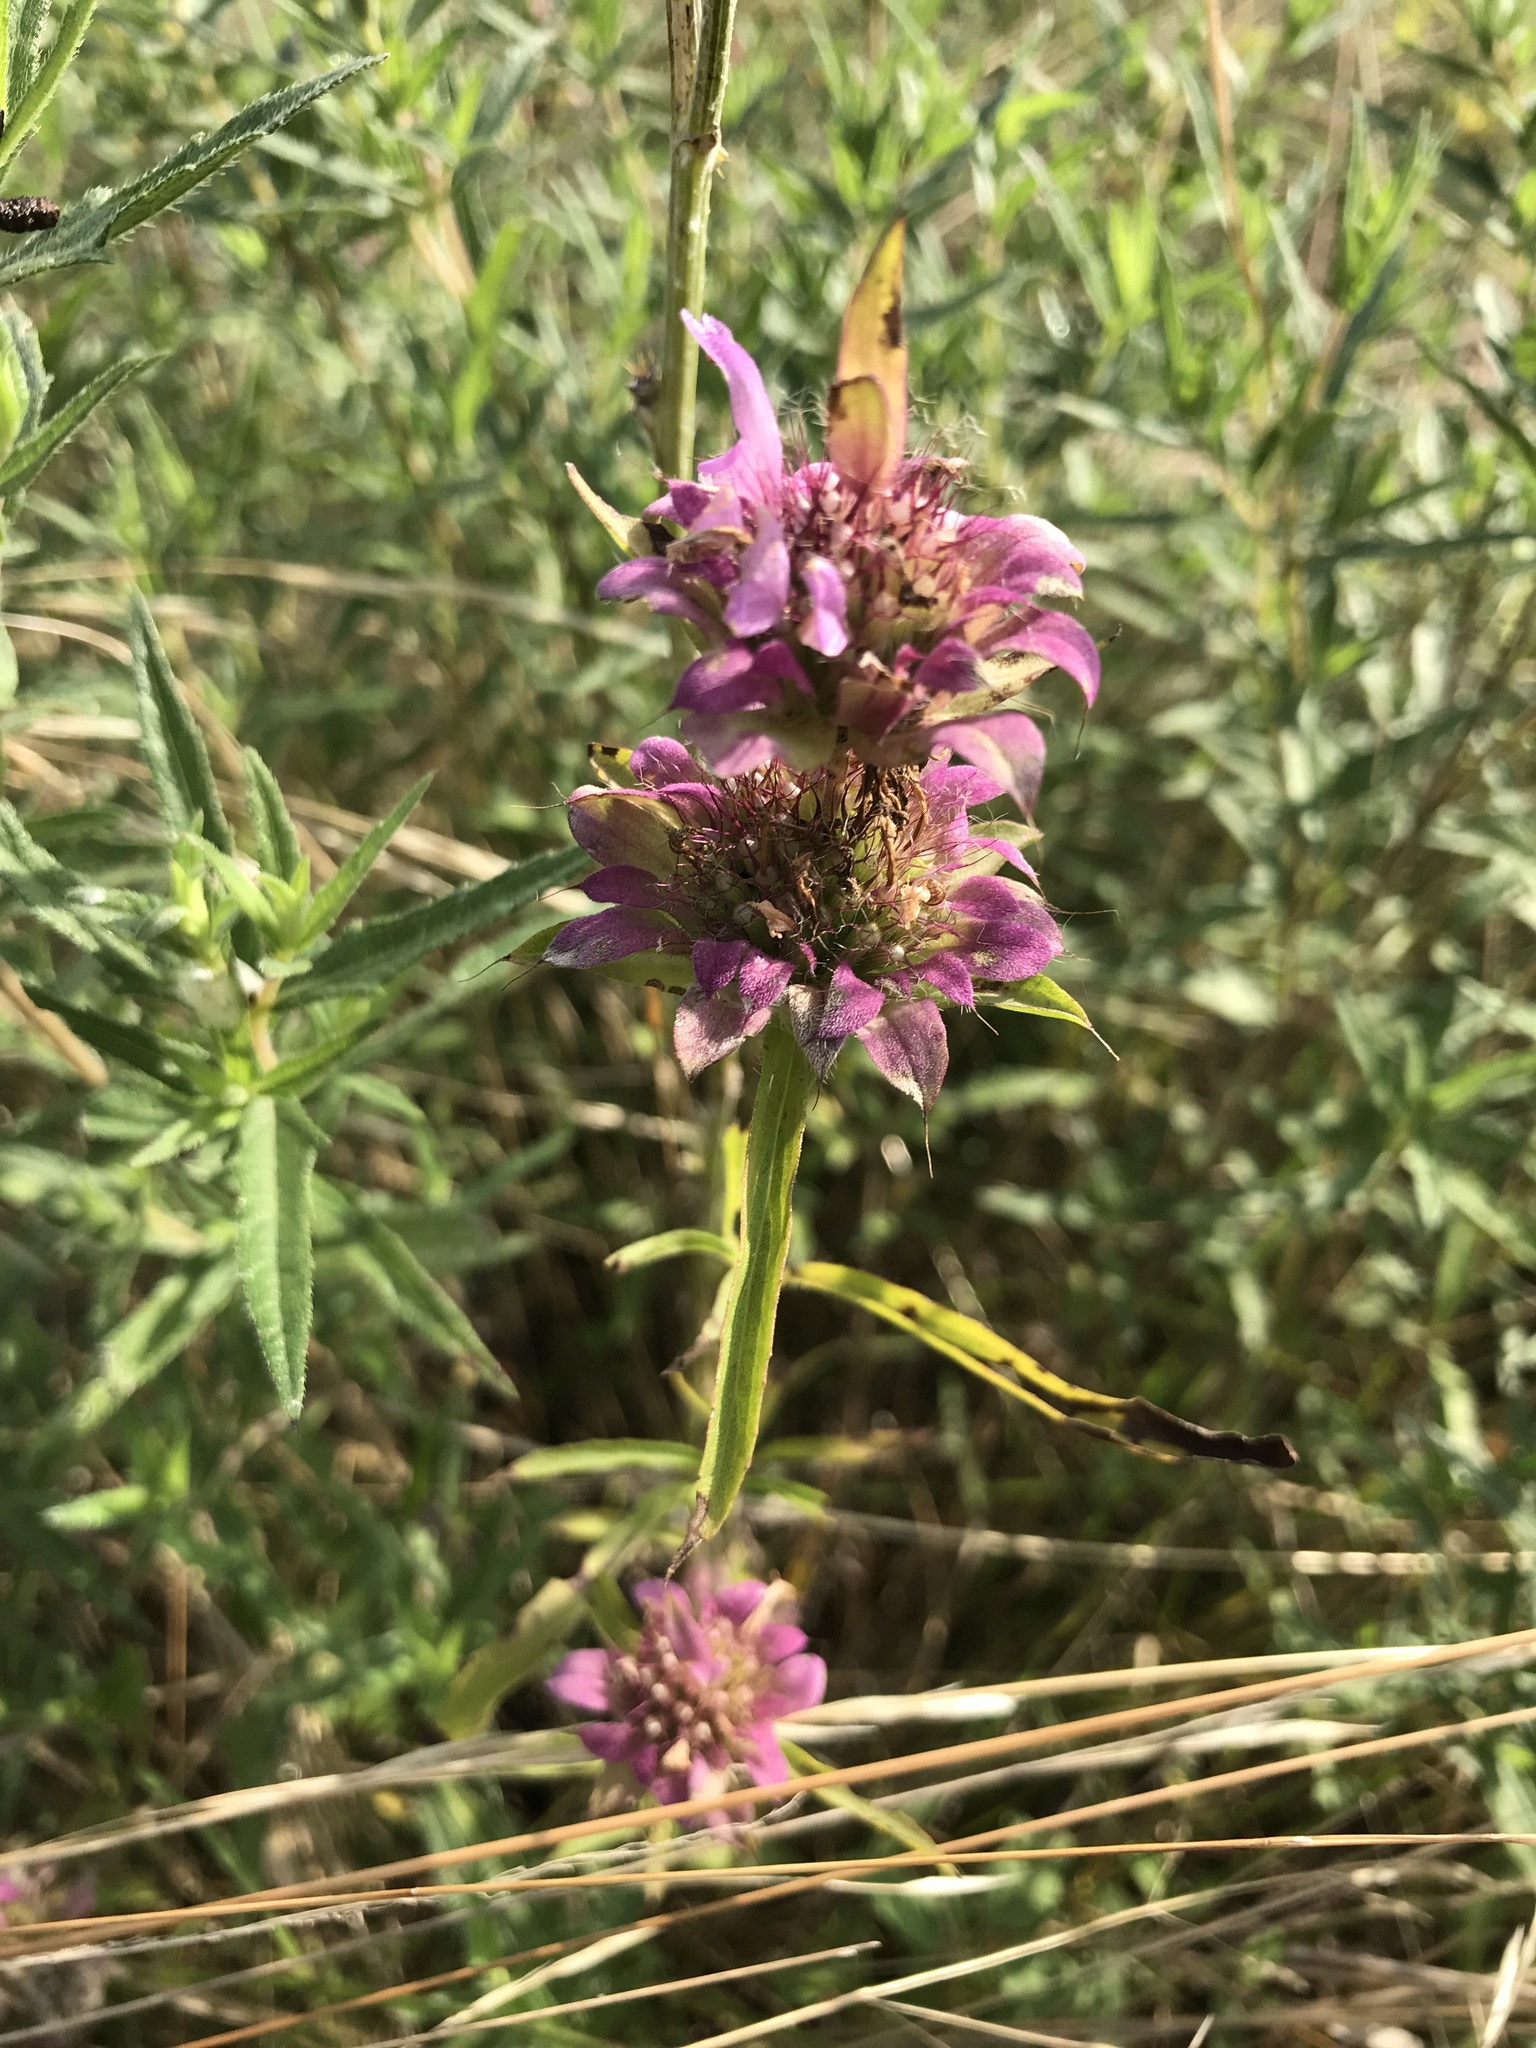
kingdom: Plantae
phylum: Tracheophyta
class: Magnoliopsida
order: Lamiales
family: Lamiaceae
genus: Monarda
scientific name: Monarda citriodora
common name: Lemon beebalm
